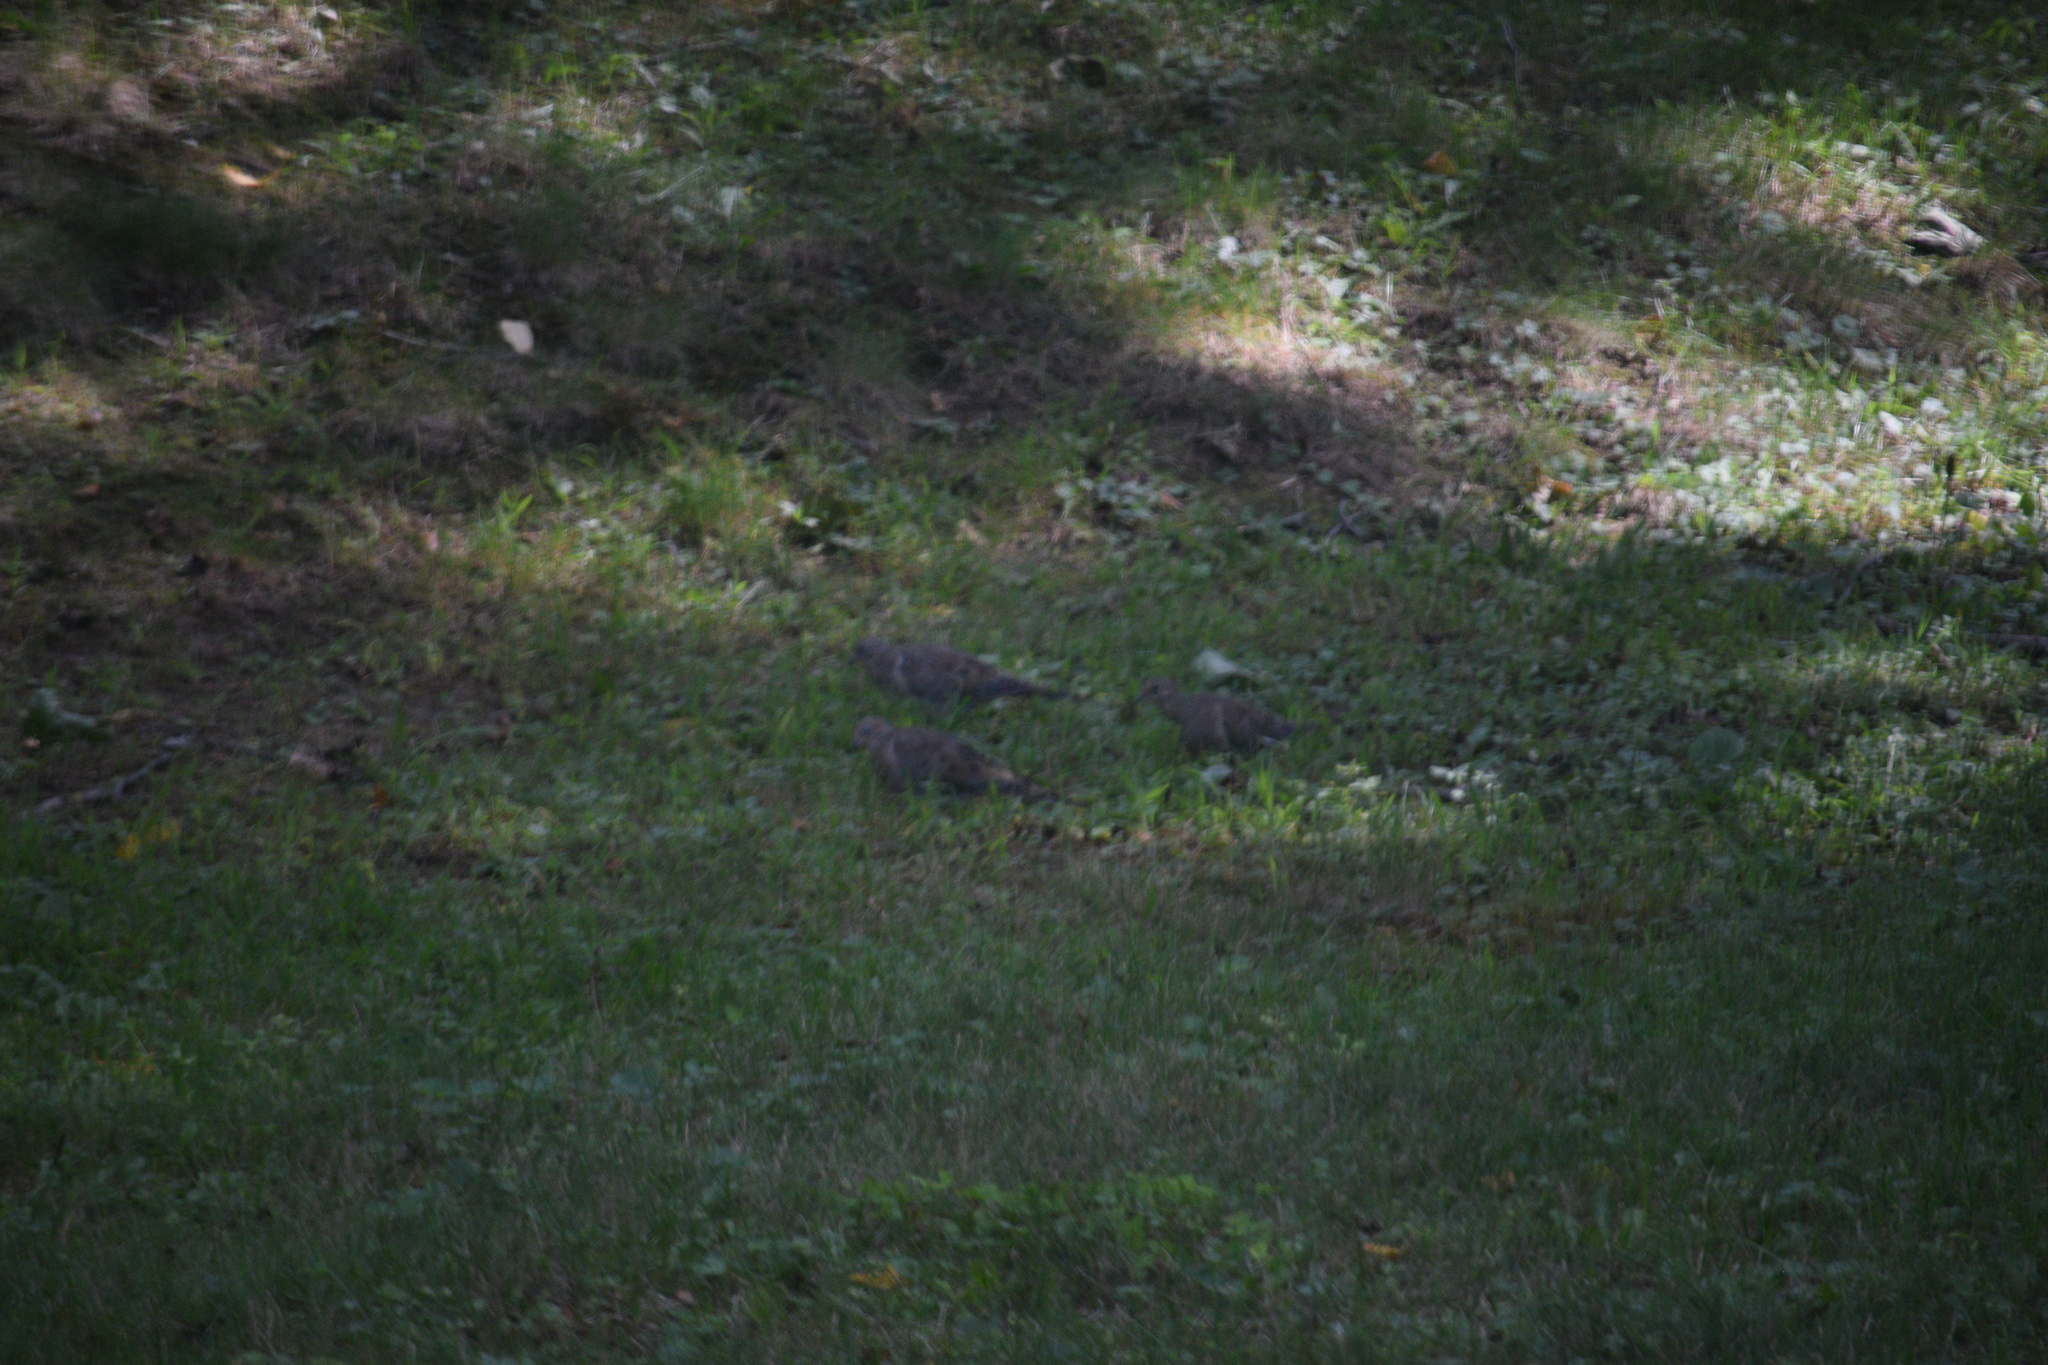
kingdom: Animalia
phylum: Chordata
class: Aves
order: Columbiformes
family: Columbidae
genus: Zenaida
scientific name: Zenaida macroura
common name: Mourning dove
